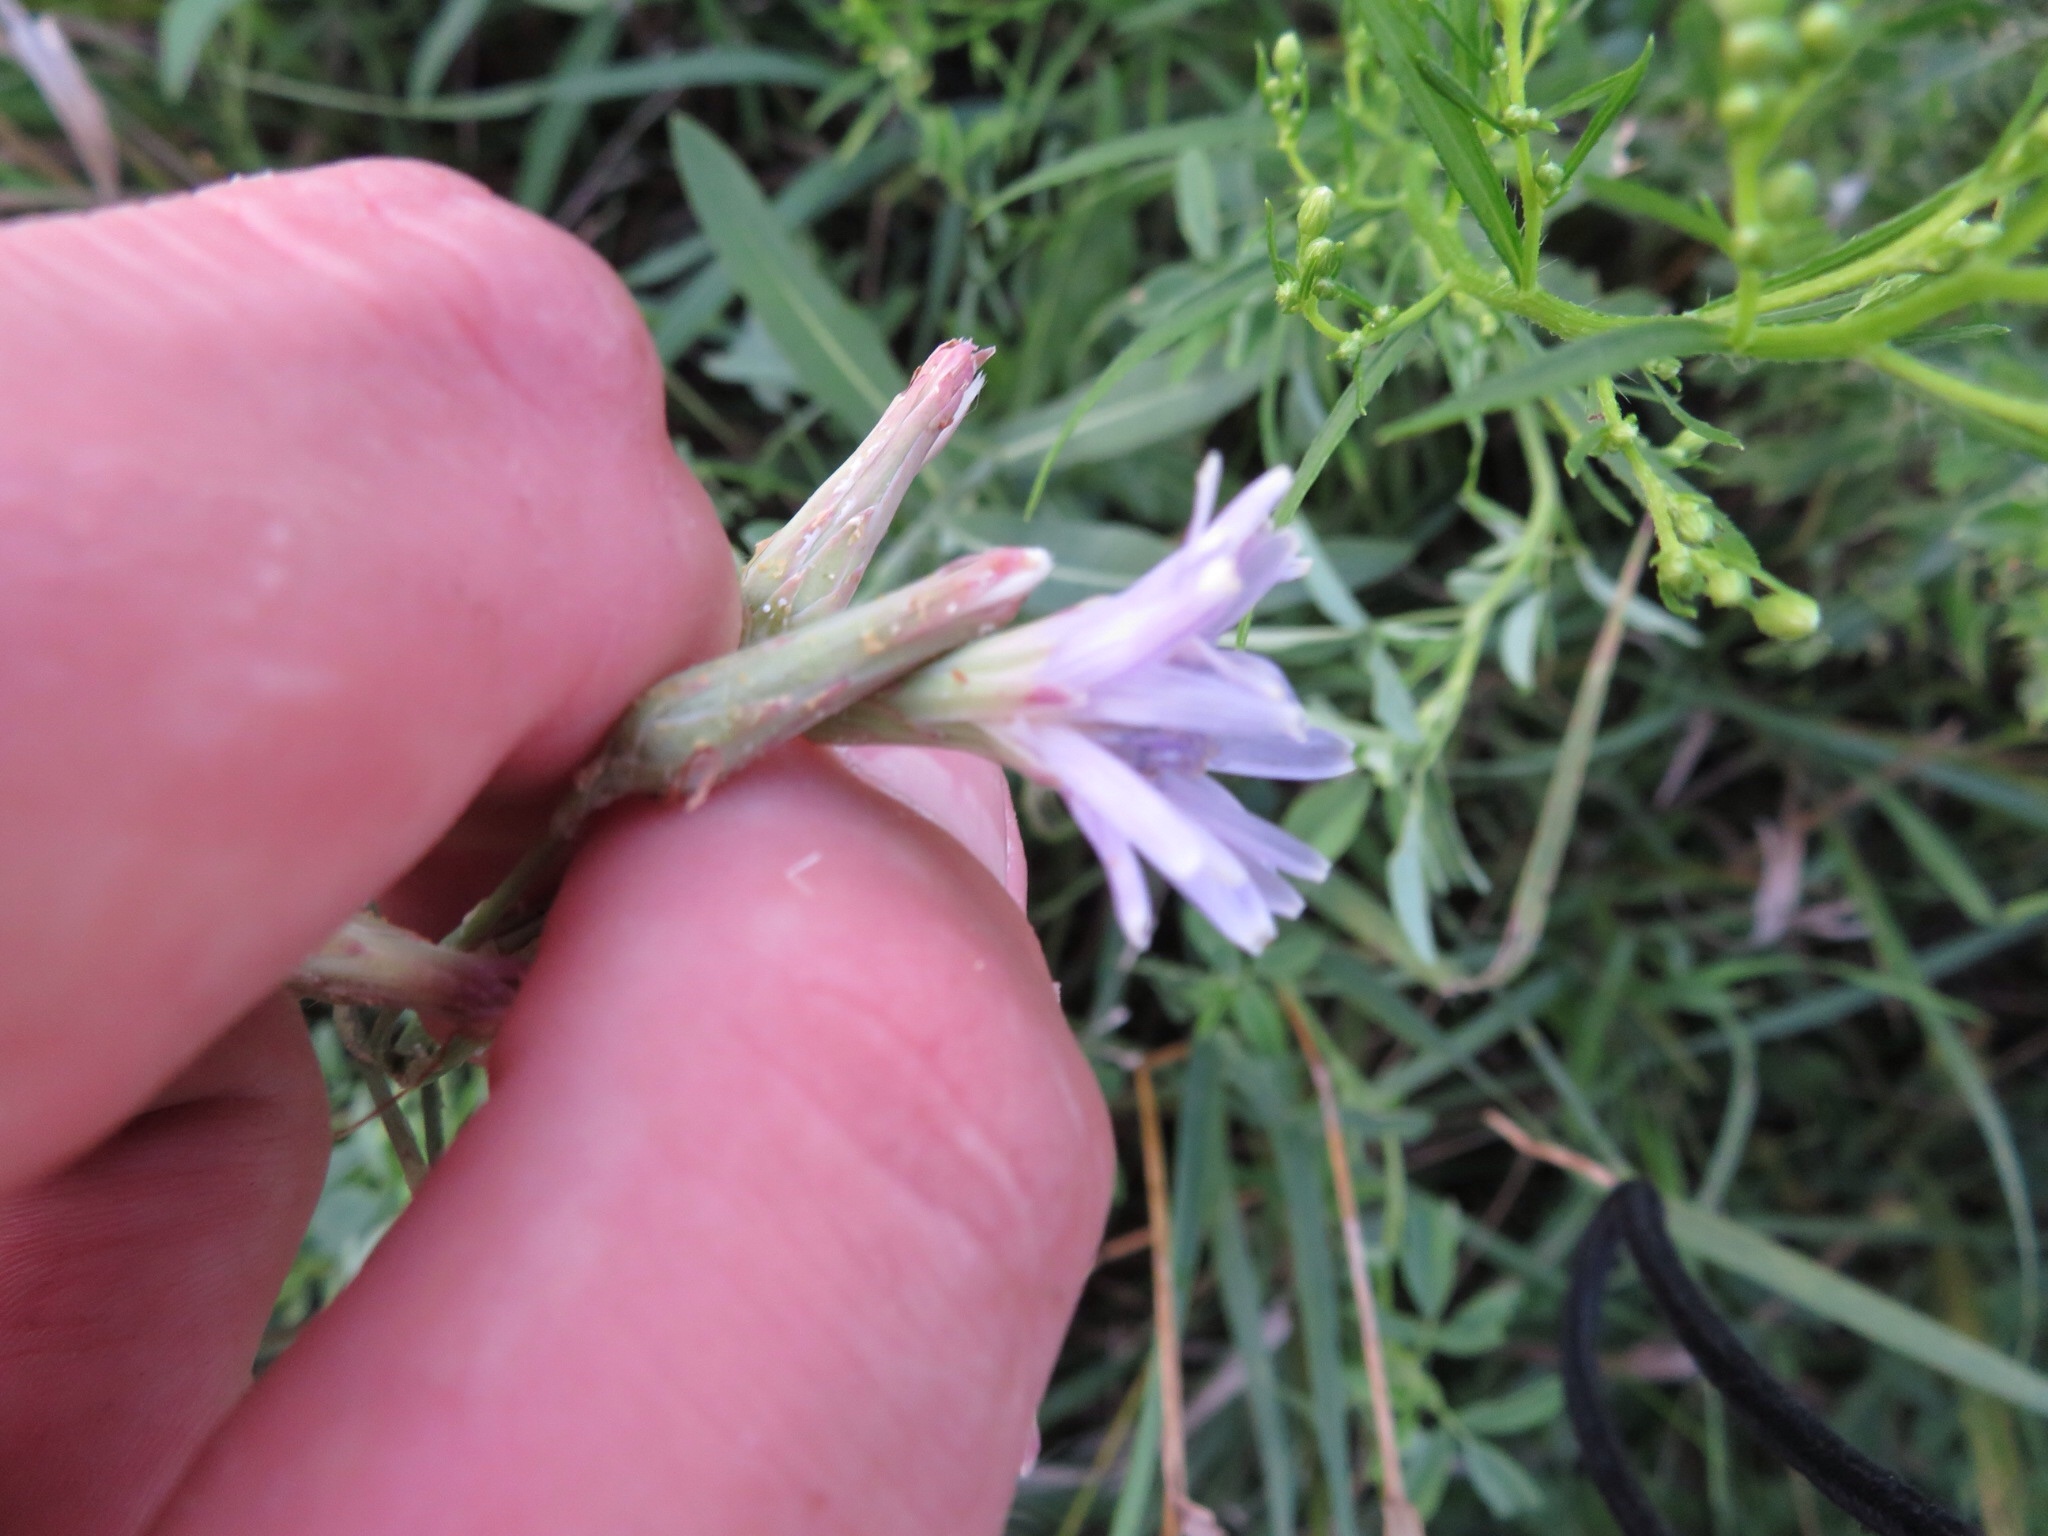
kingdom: Plantae
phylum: Tracheophyta
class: Magnoliopsida
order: Asterales
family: Asteraceae
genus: Lactuca
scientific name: Lactuca tatarica
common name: Blue lettuce
